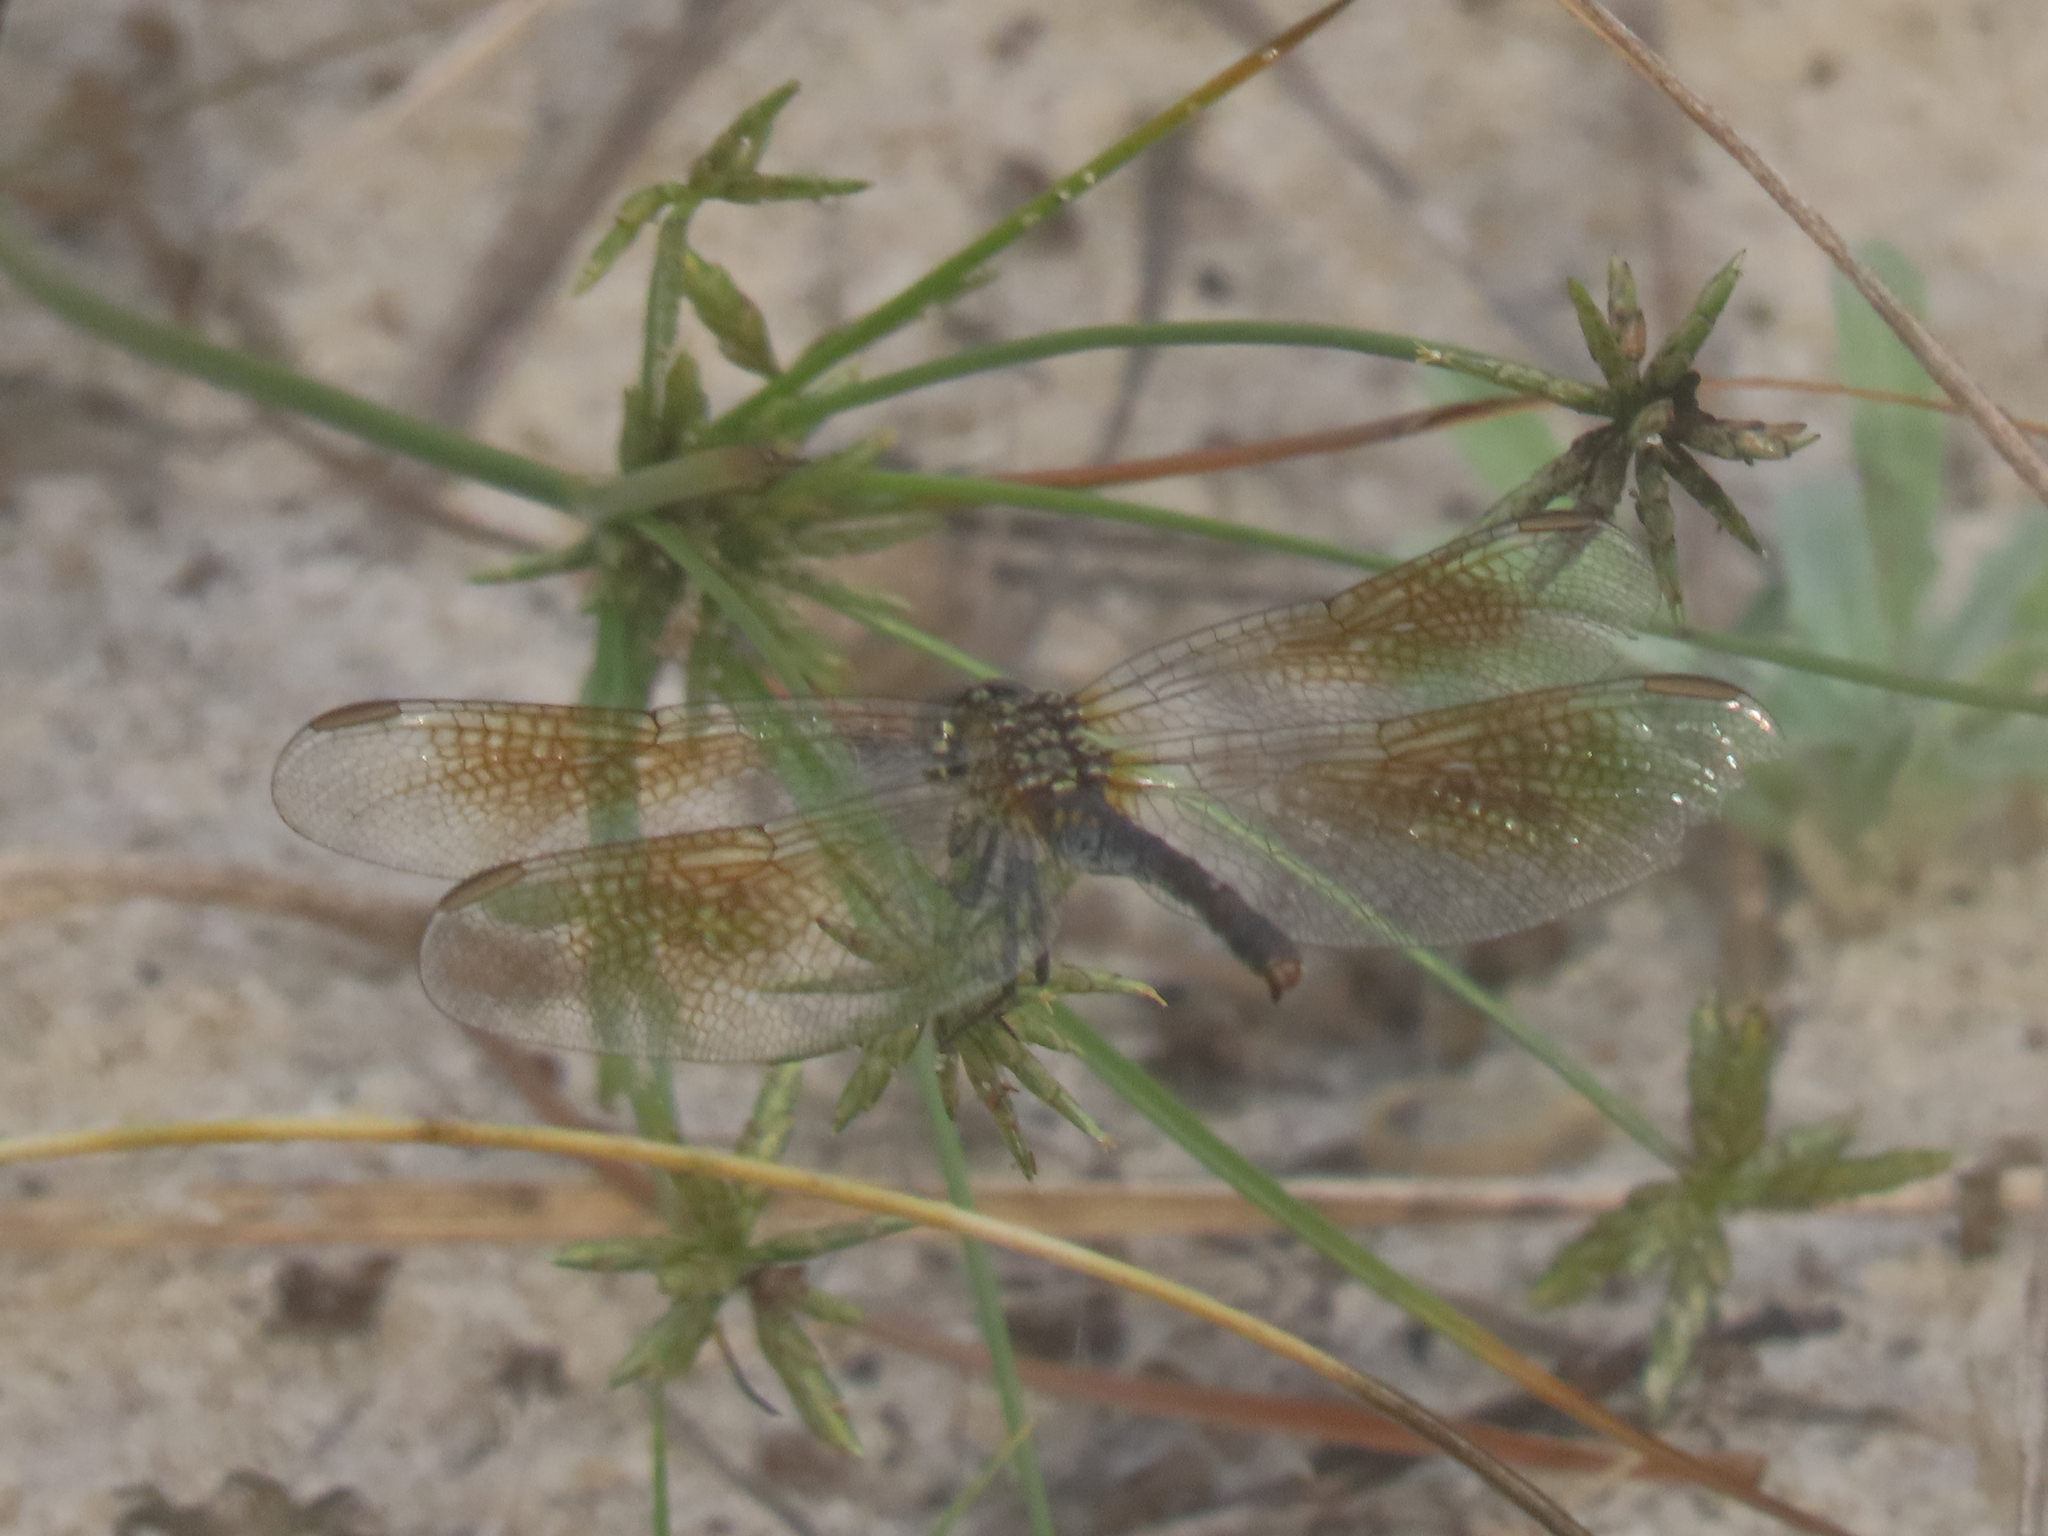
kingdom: Animalia
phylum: Arthropoda
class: Insecta
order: Odonata
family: Libellulidae
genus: Erythrodiplax
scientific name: Erythrodiplax berenice
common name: Seaside dragonlet
